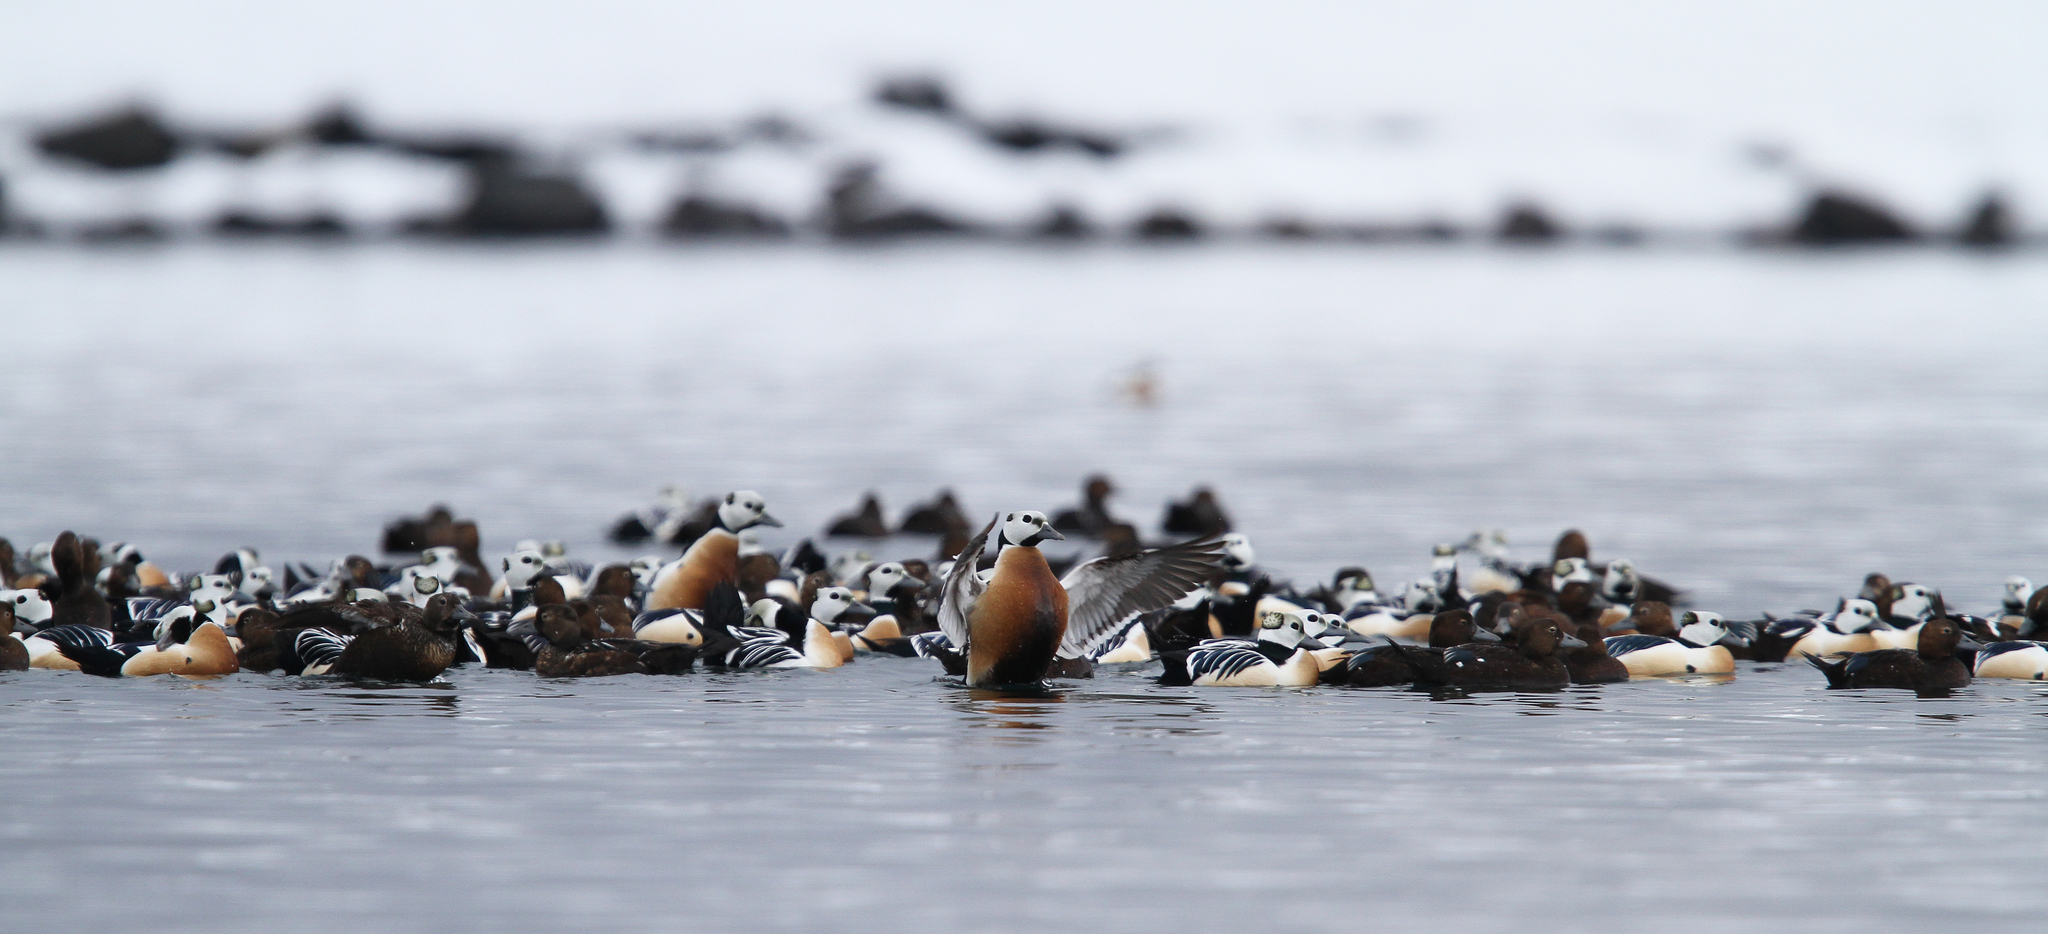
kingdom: Animalia
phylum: Chordata
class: Aves
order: Anseriformes
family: Anatidae
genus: Polysticta
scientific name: Polysticta stelleri
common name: Steller's eider
